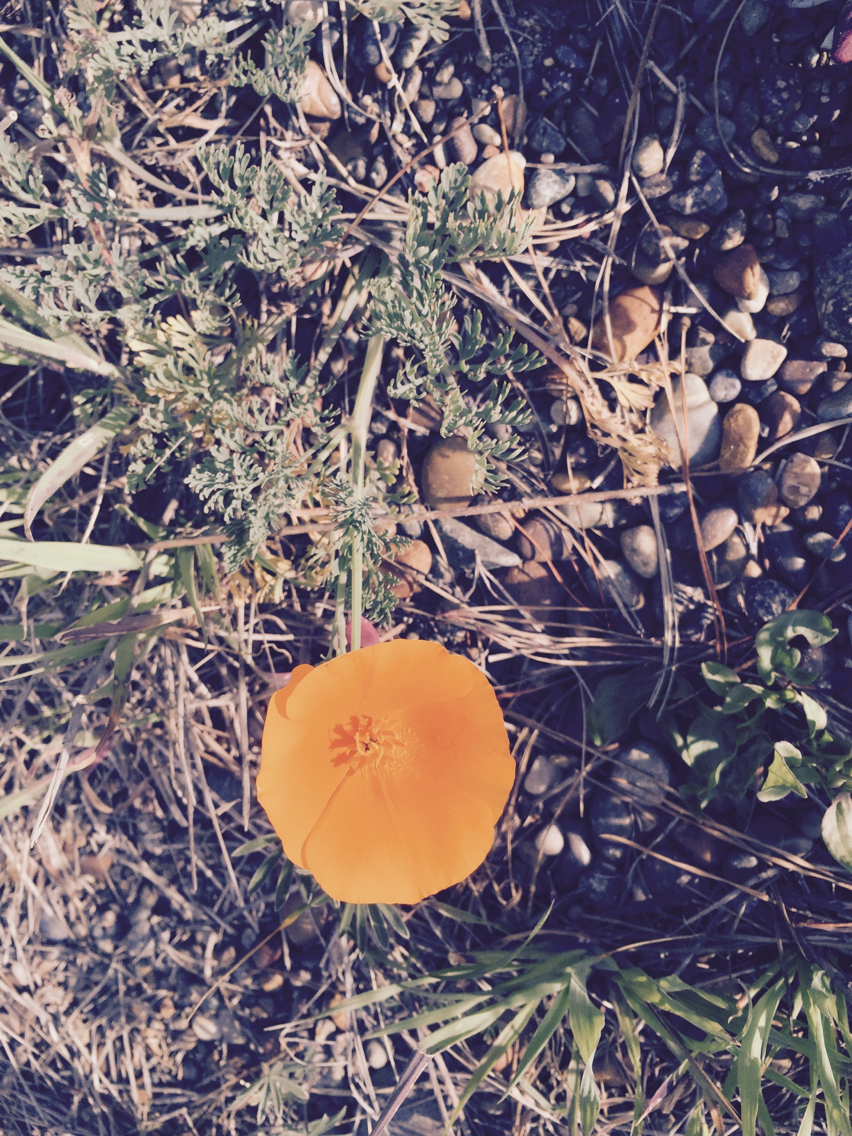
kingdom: Plantae
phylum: Tracheophyta
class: Magnoliopsida
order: Ranunculales
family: Papaveraceae
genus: Eschscholzia
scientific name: Eschscholzia californica
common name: California poppy
